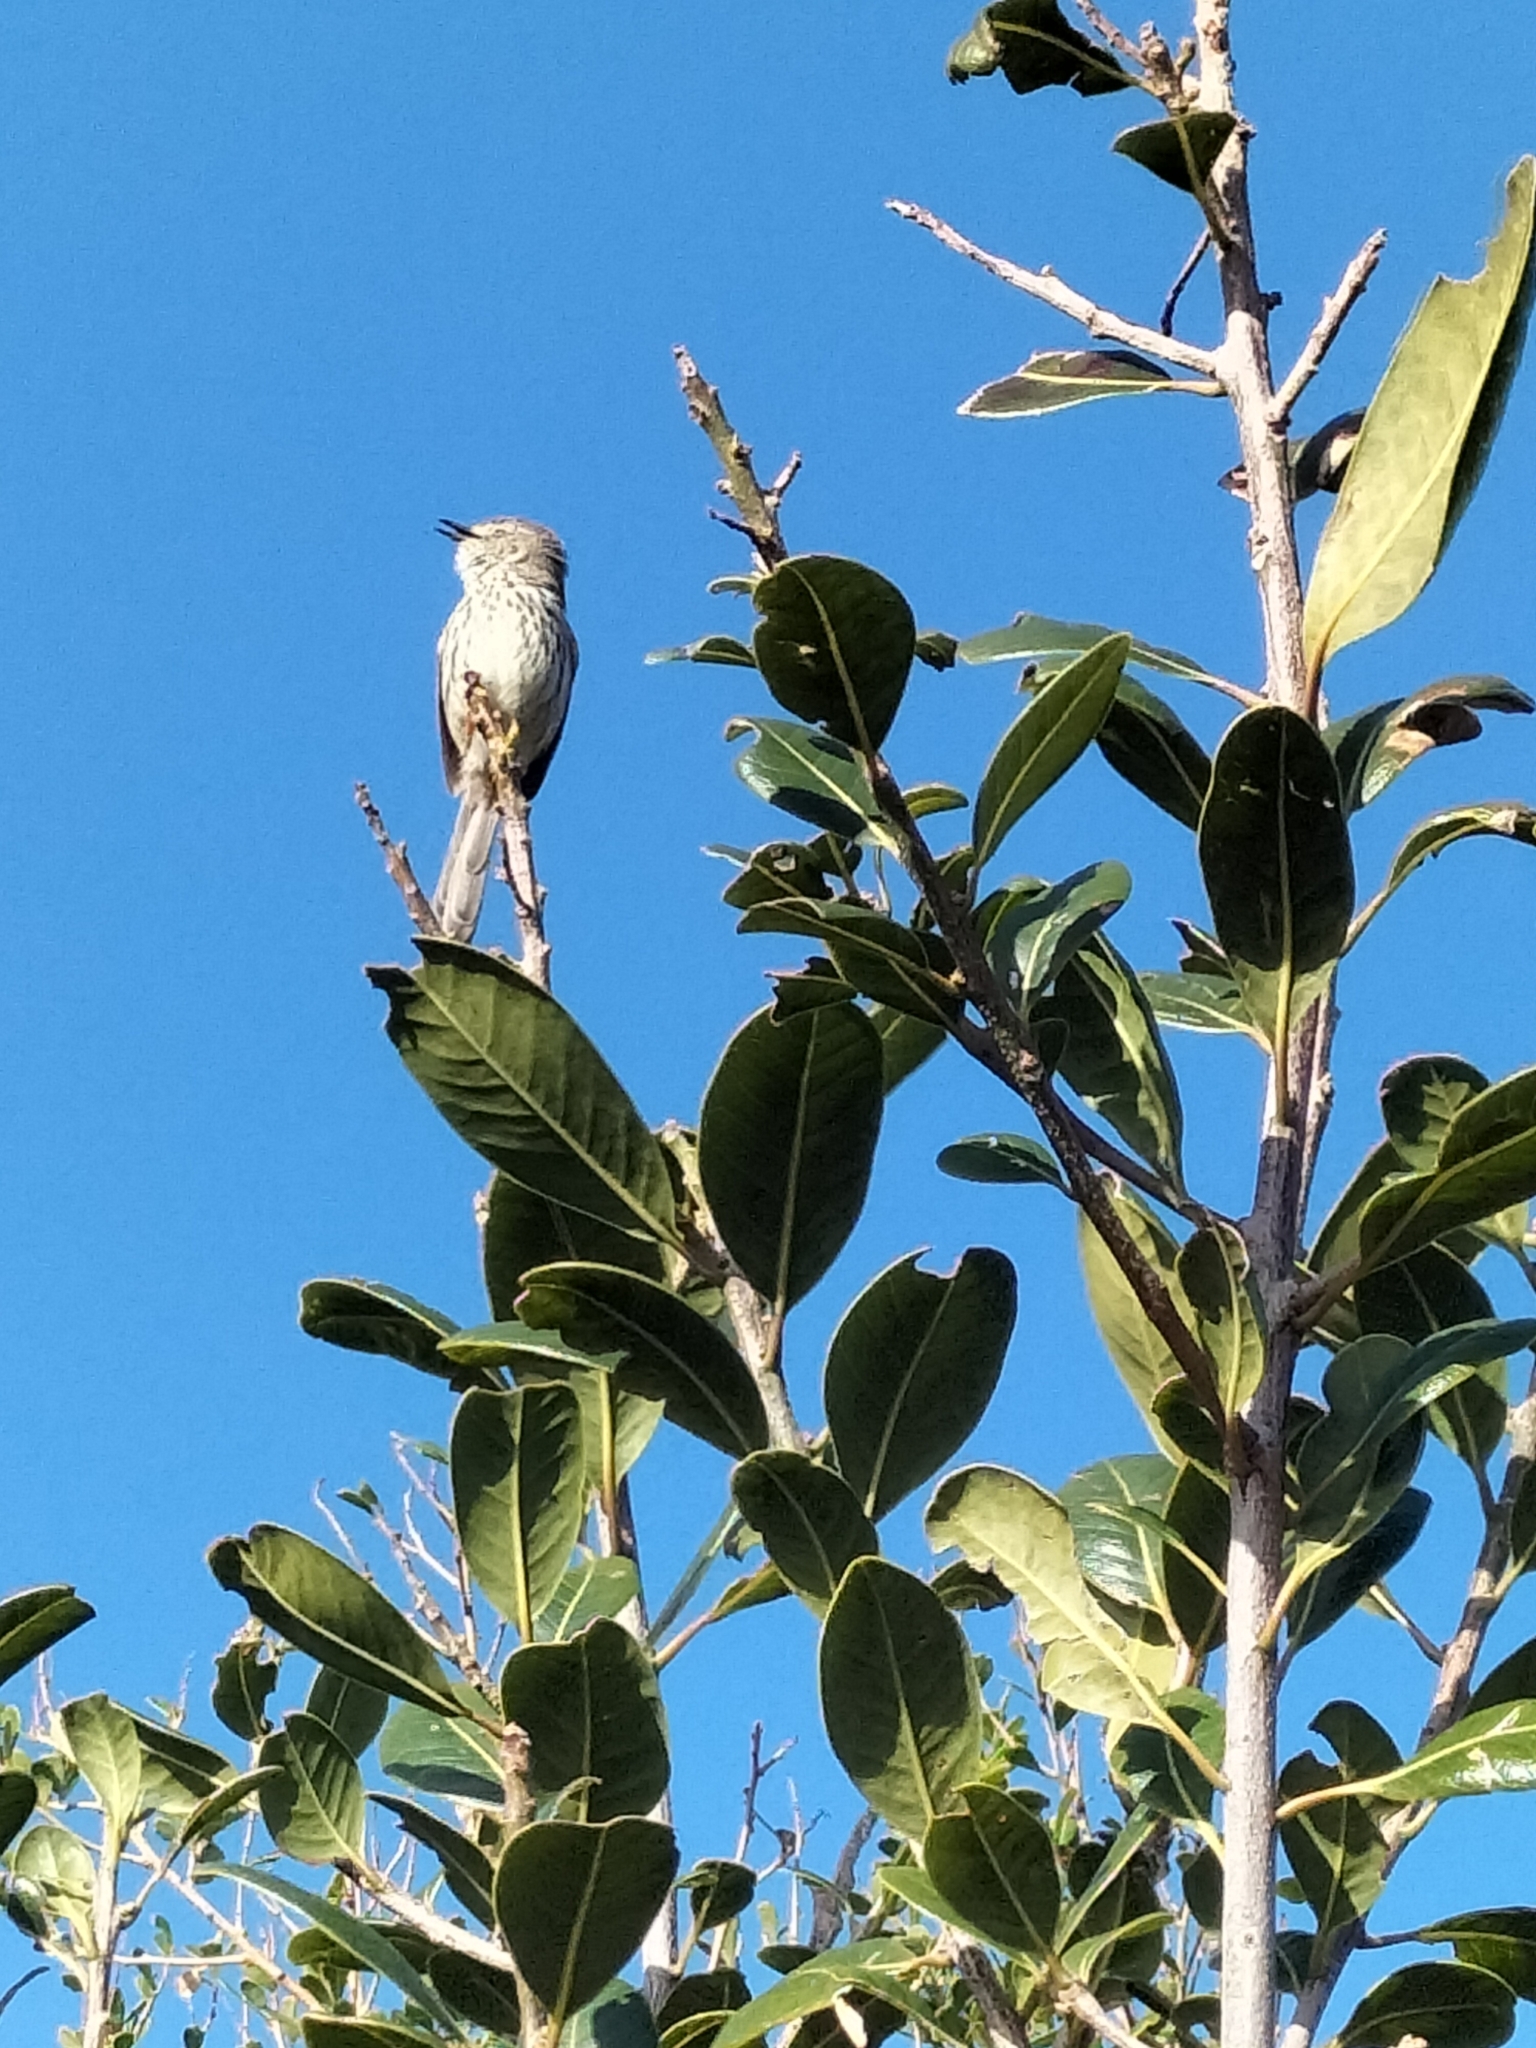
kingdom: Animalia
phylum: Chordata
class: Aves
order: Passeriformes
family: Cisticolidae
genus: Prinia
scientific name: Prinia maculosa
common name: Karoo prinia
